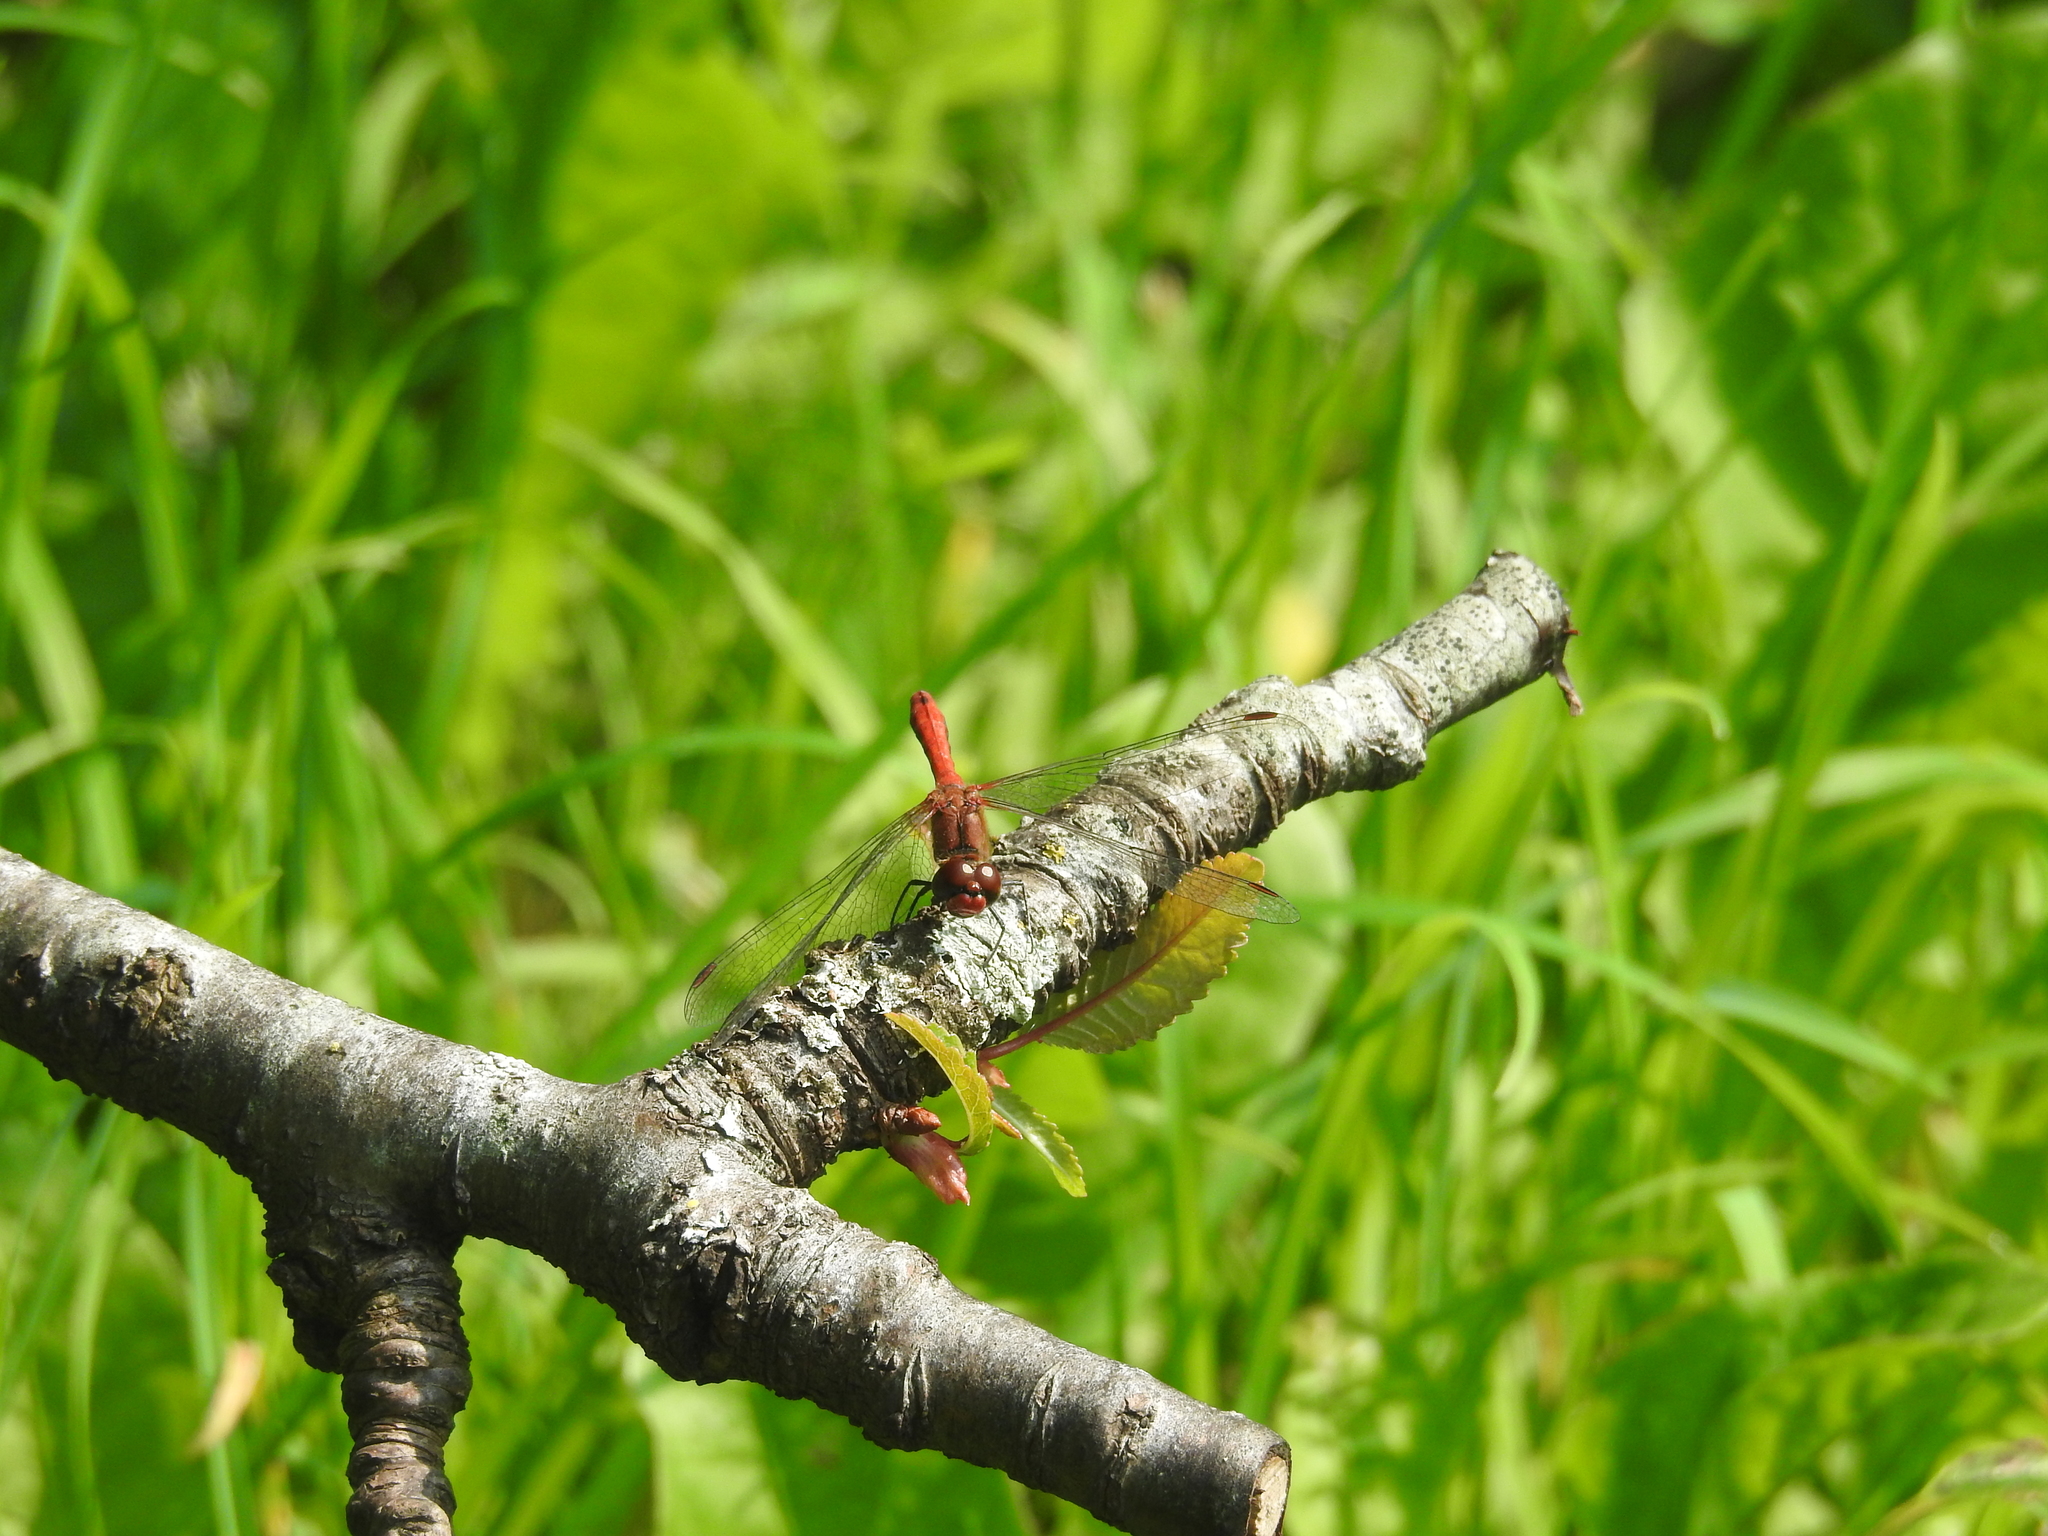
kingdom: Animalia
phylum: Arthropoda
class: Insecta
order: Odonata
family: Libellulidae
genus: Sympetrum
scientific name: Sympetrum sanguineum
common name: Ruddy darter
